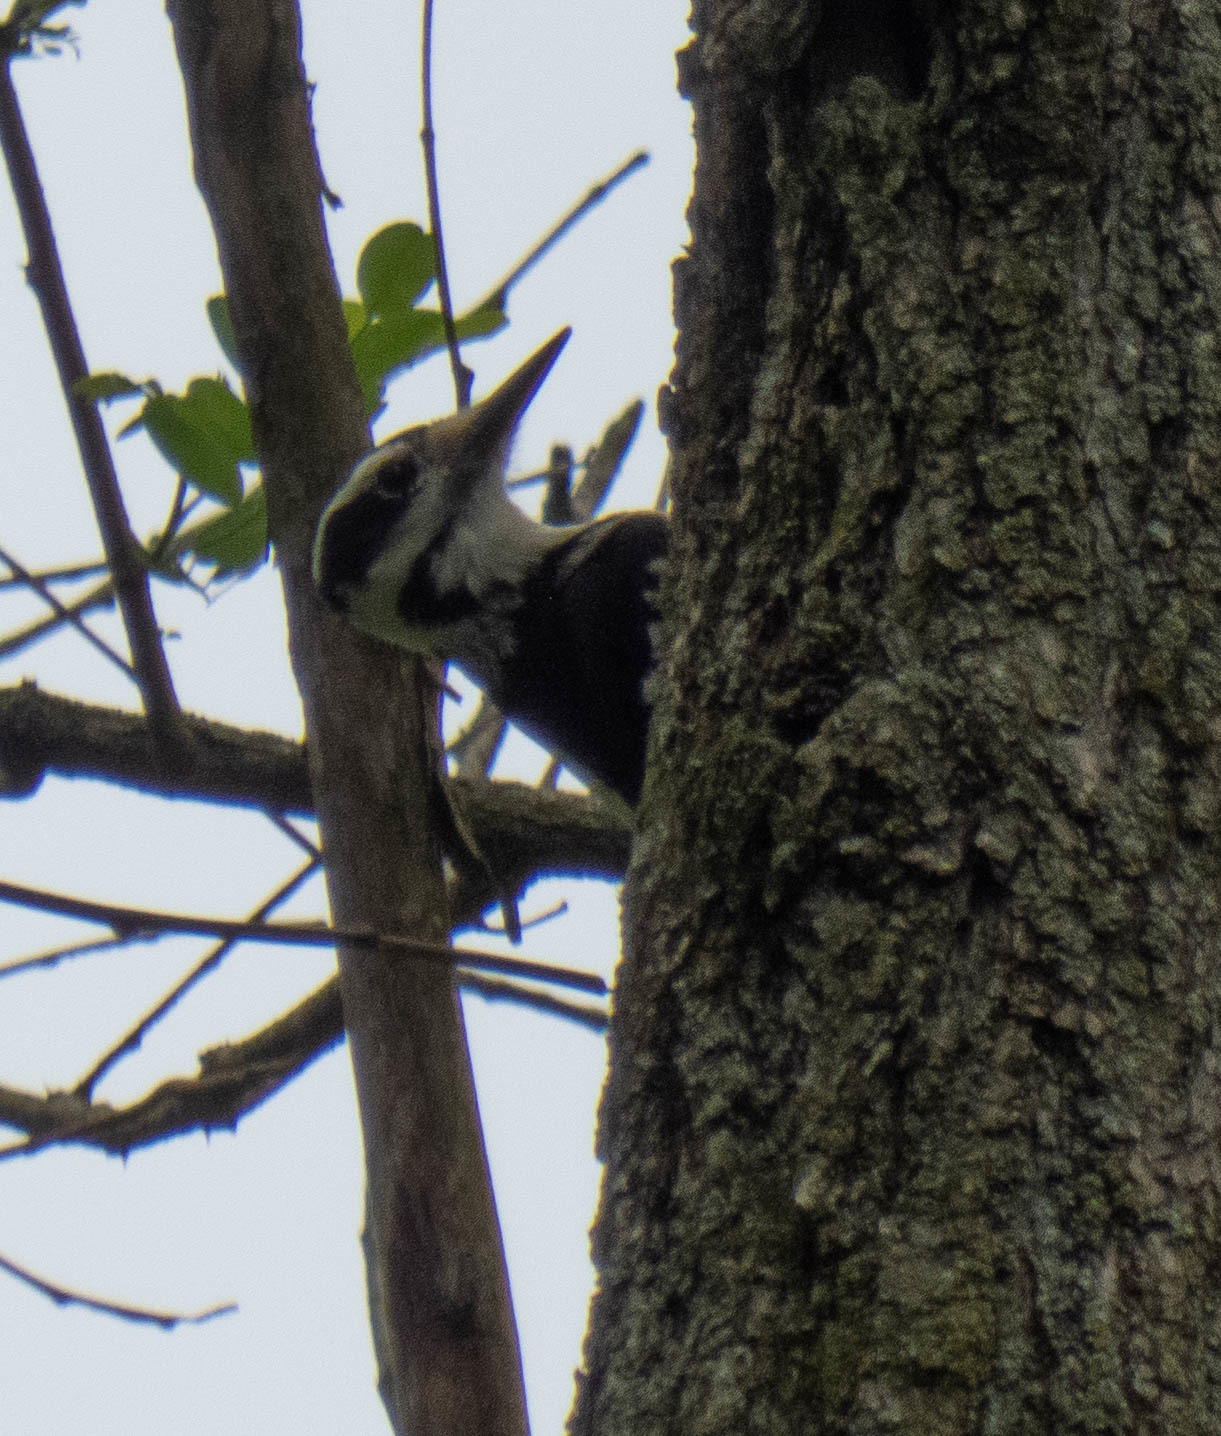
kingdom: Animalia
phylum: Chordata
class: Aves
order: Piciformes
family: Picidae
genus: Leuconotopicus
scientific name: Leuconotopicus villosus
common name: Hairy woodpecker
